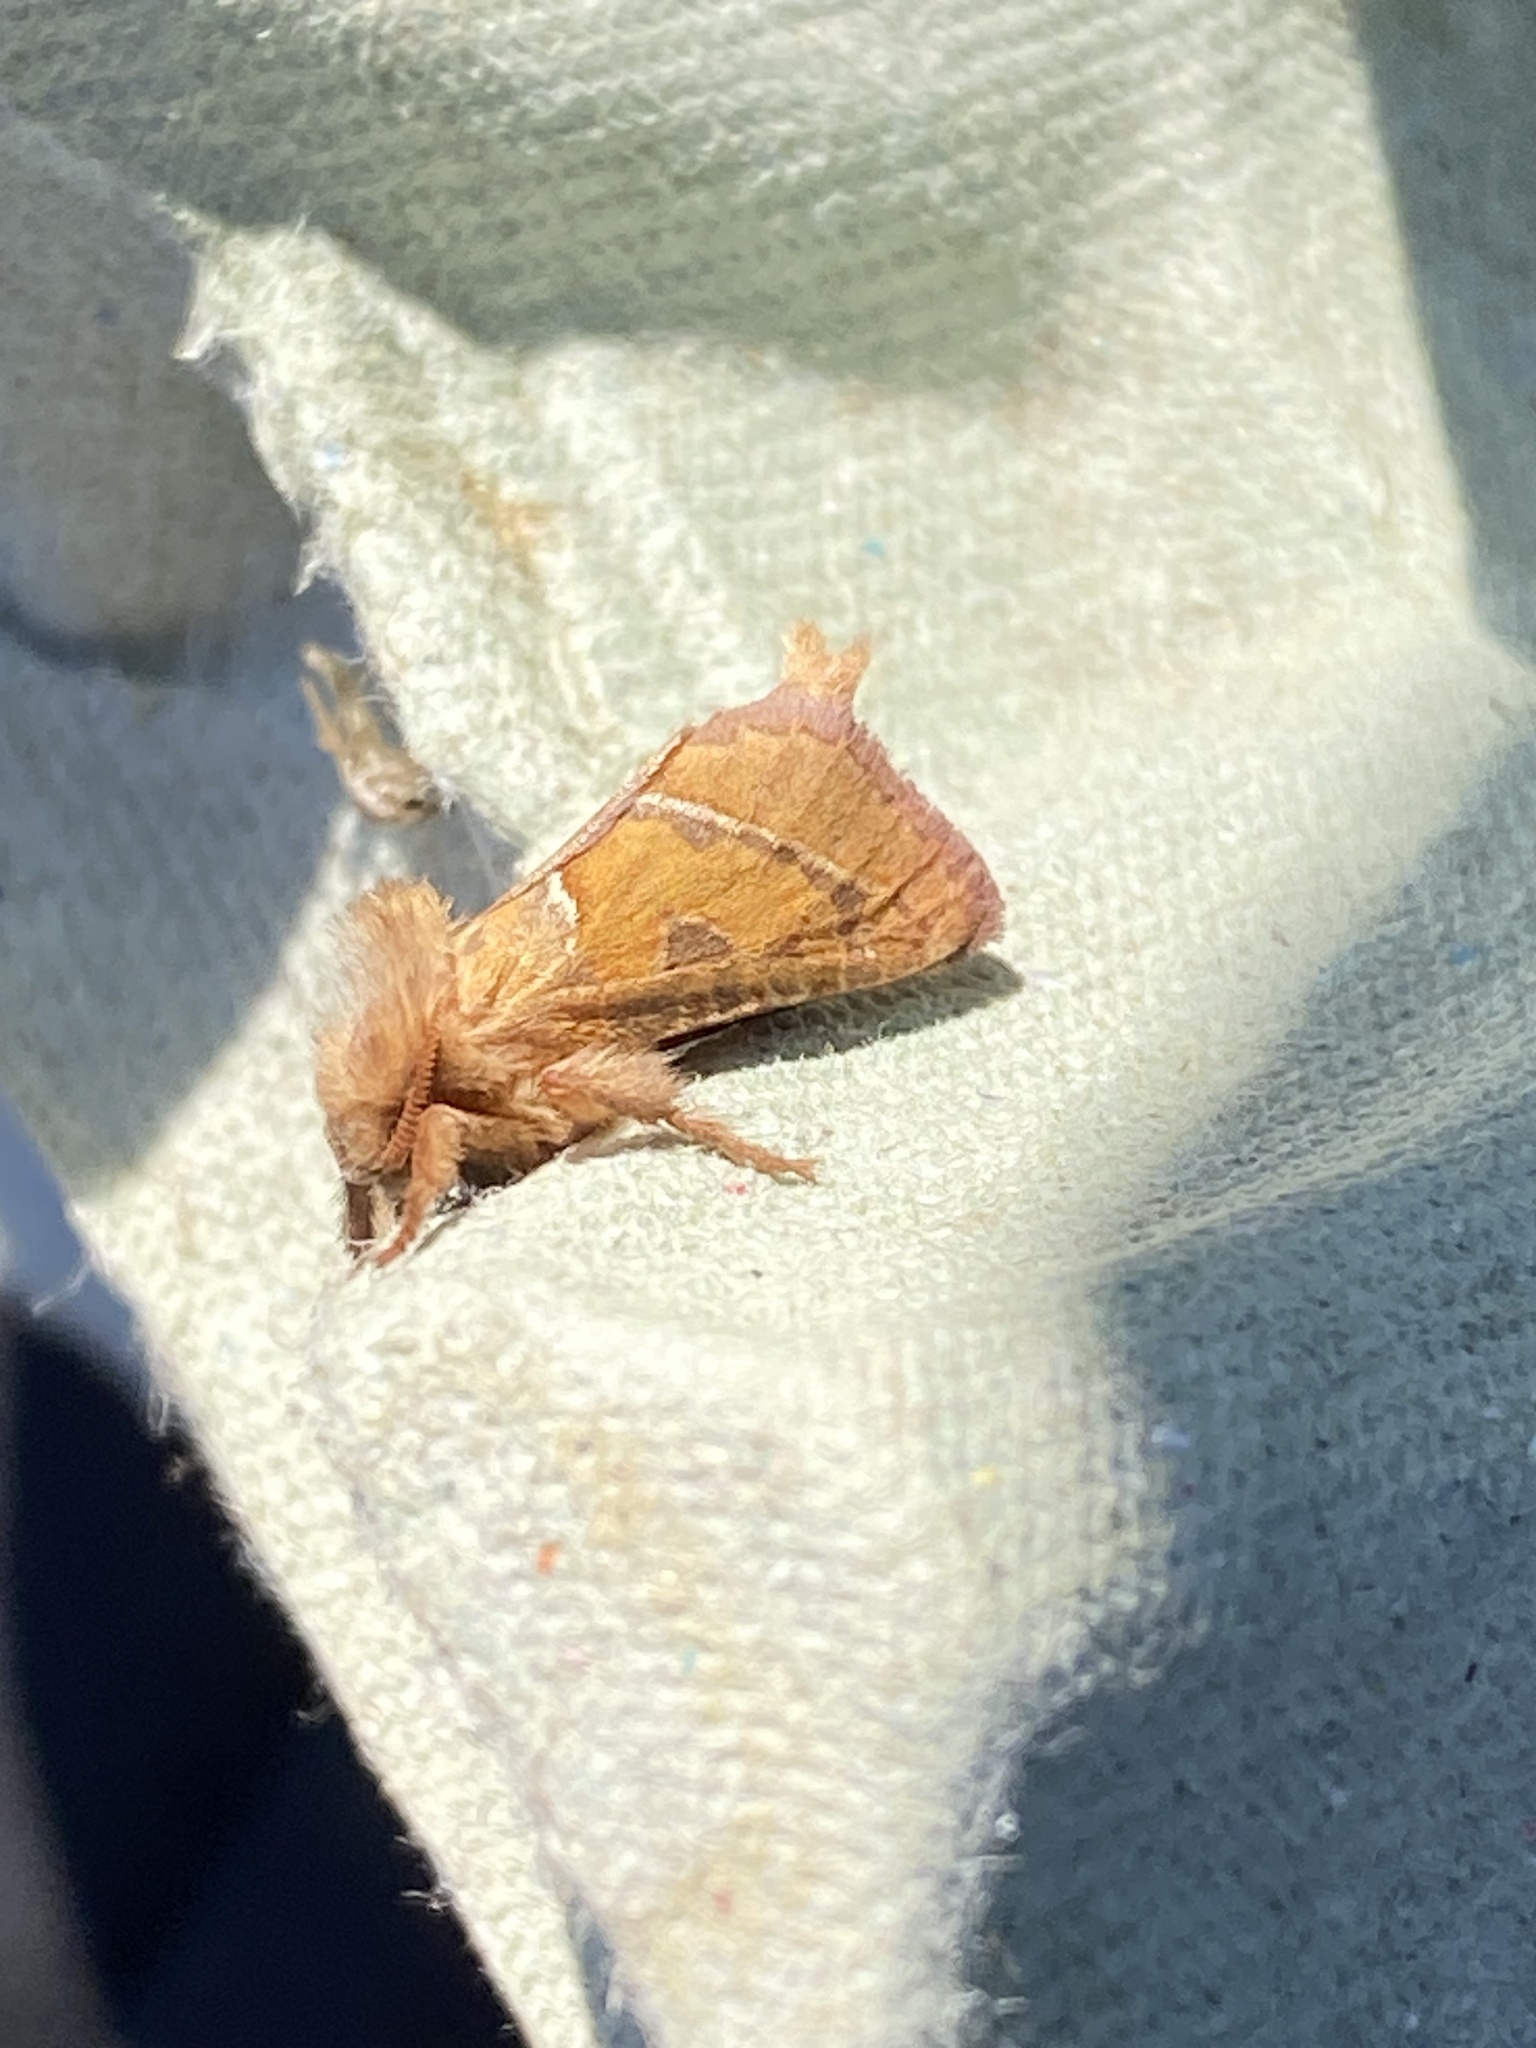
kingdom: Animalia
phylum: Arthropoda
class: Insecta
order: Lepidoptera
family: Hepialidae
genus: Triodia
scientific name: Triodia sylvina
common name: Orange swift
